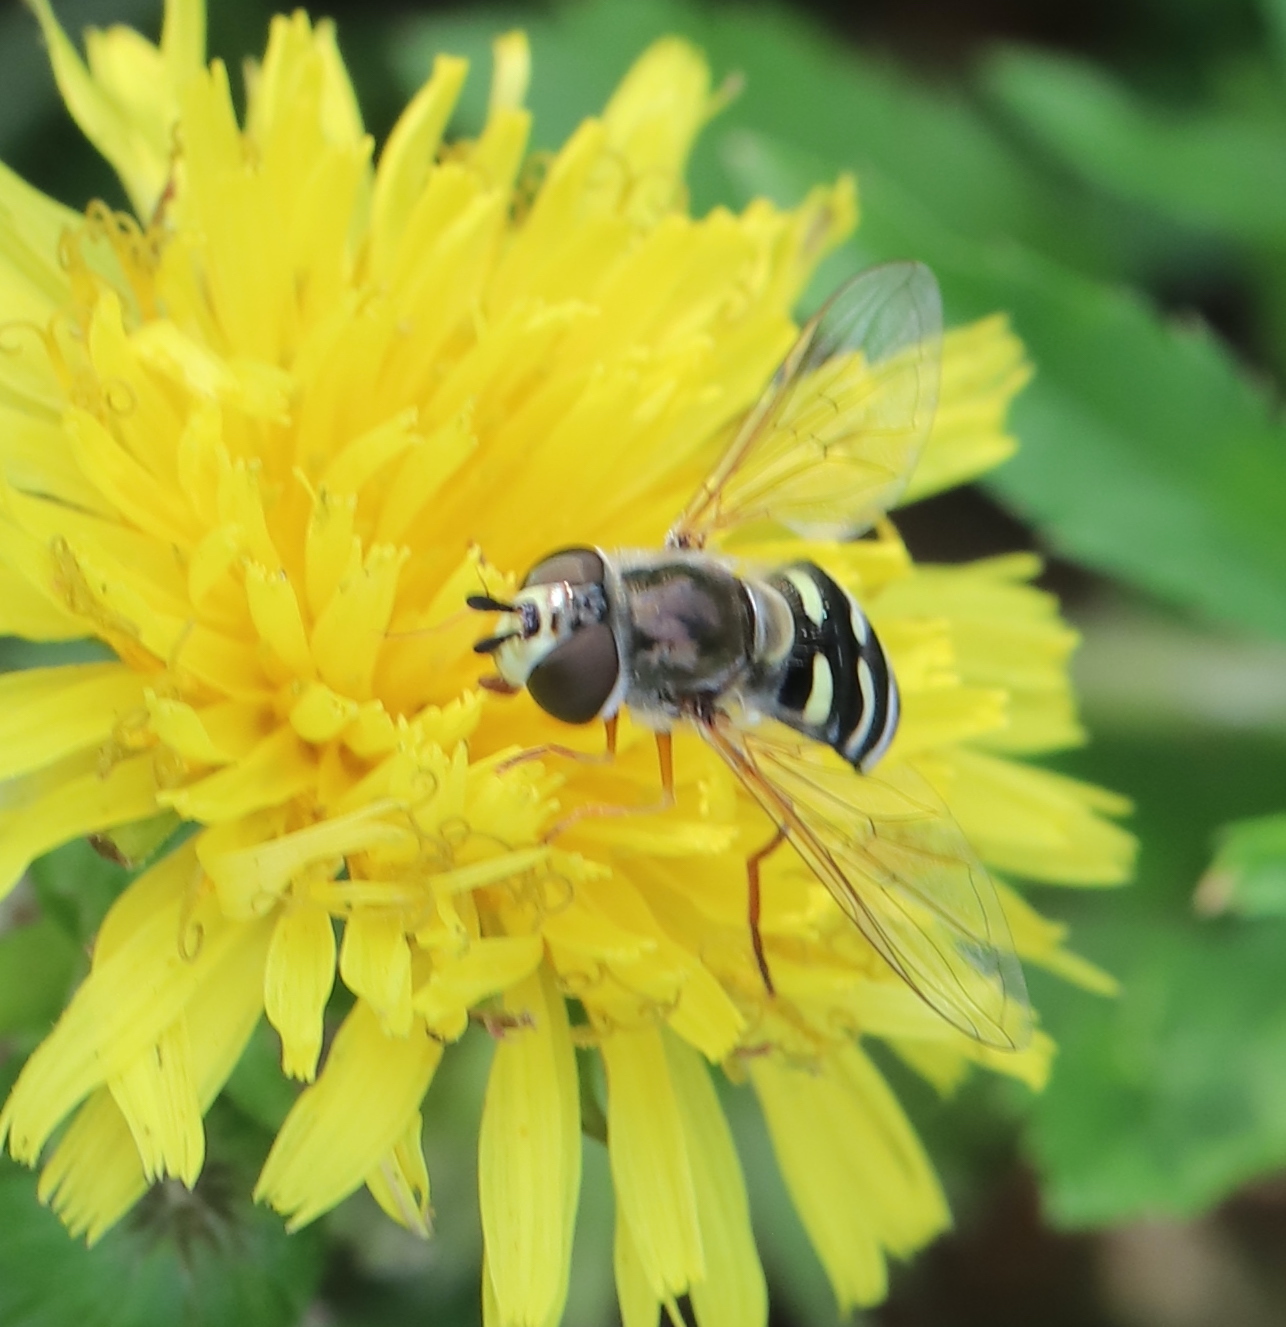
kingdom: Animalia
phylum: Arthropoda
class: Insecta
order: Diptera
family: Syrphidae
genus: Eupeodes
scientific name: Eupeodes volucris
